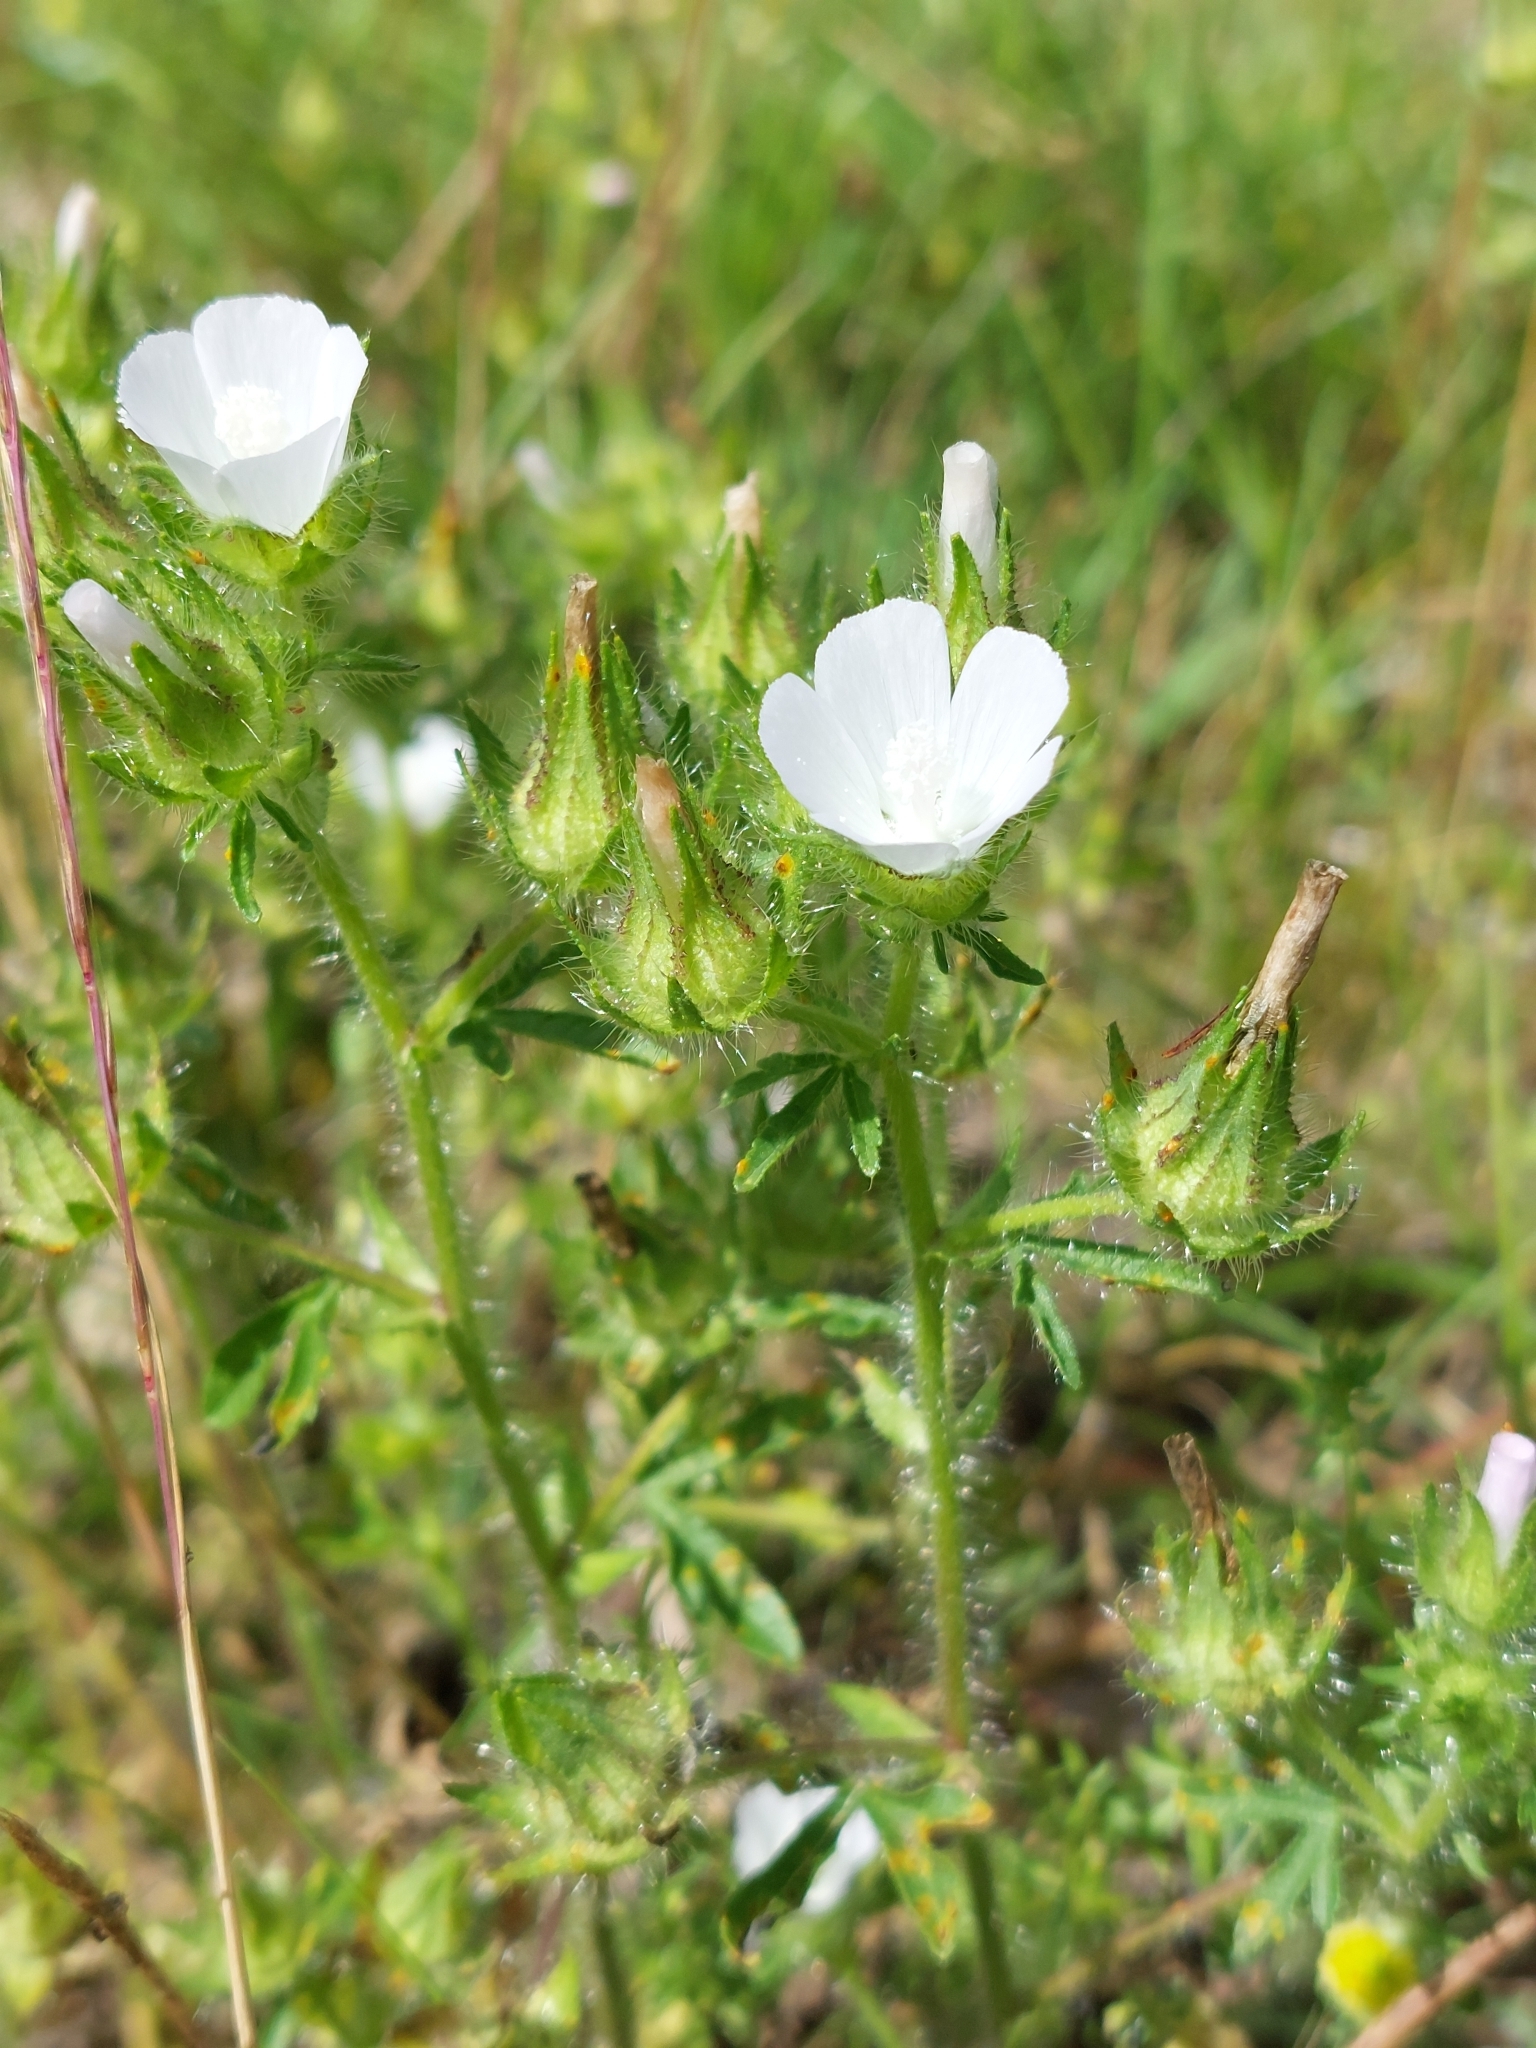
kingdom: Plantae
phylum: Tracheophyta
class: Magnoliopsida
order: Malvales
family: Malvaceae
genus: Althaea
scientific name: Althaea hirsuta
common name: Rough marsh-mallow
